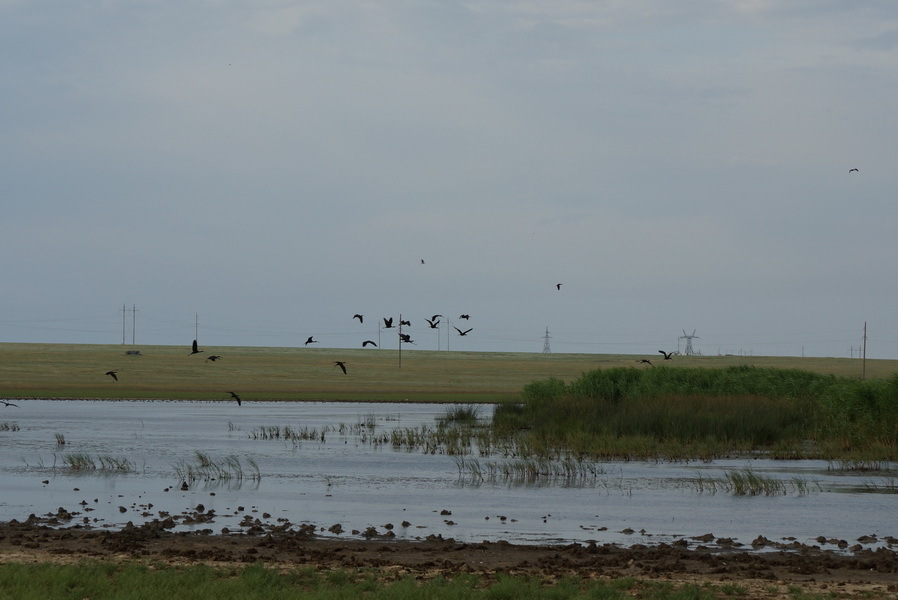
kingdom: Animalia
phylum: Chordata
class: Aves
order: Pelecaniformes
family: Threskiornithidae
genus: Plegadis
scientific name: Plegadis falcinellus
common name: Glossy ibis
